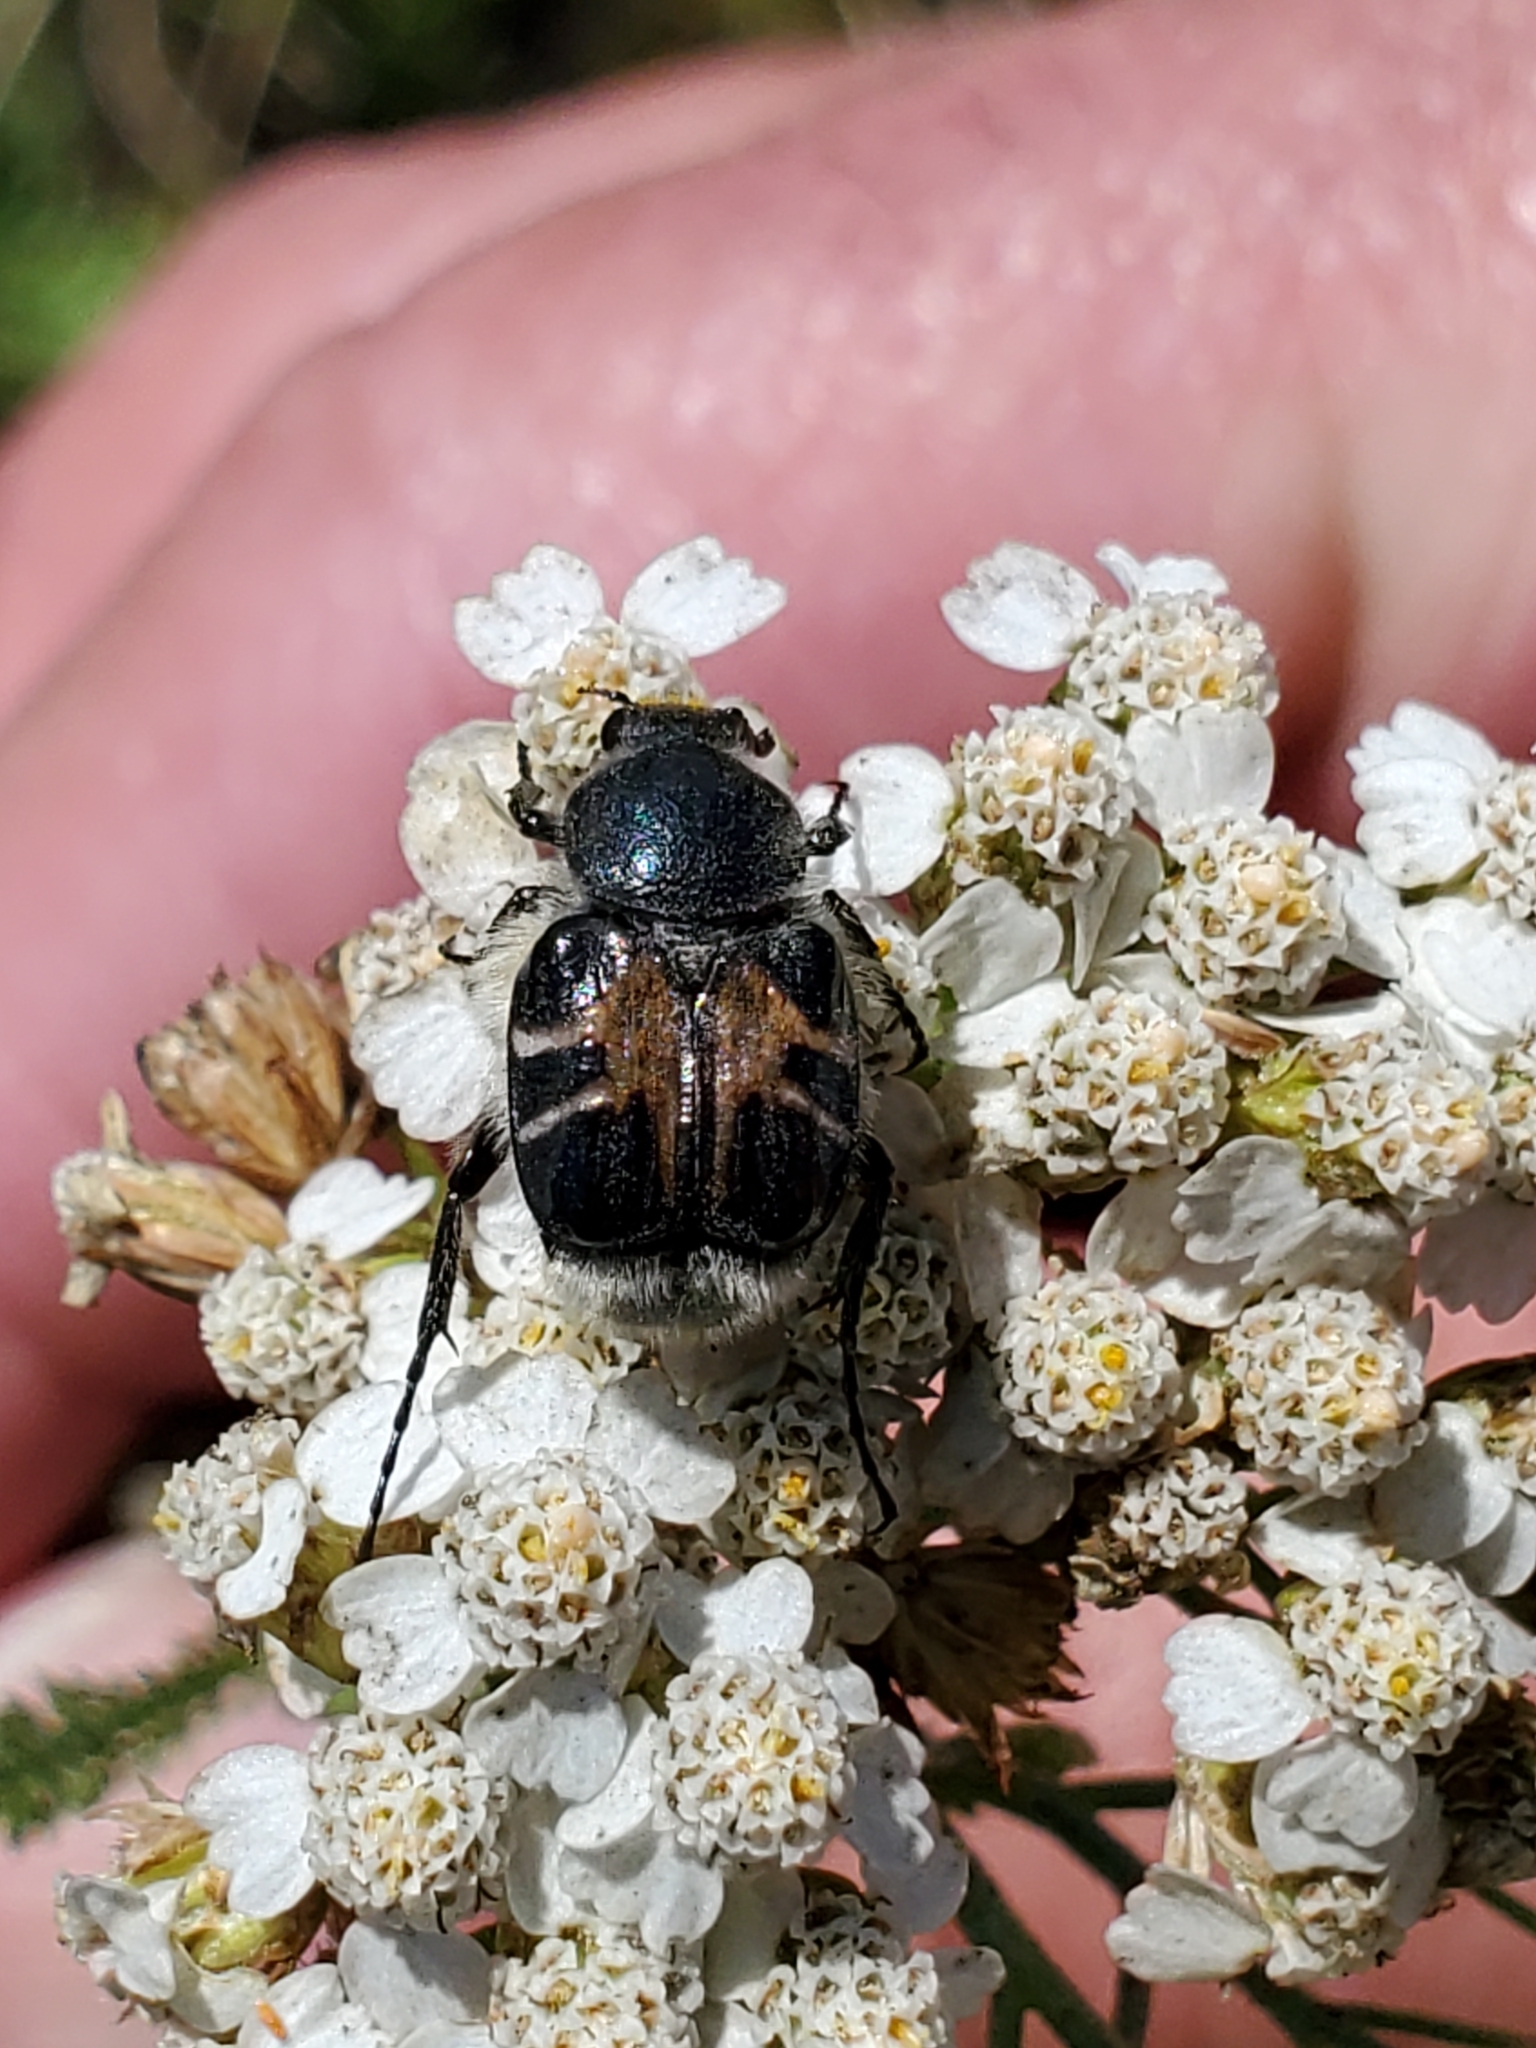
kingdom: Animalia
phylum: Arthropoda
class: Insecta
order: Coleoptera
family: Scarabaeidae
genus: Trichiotinus
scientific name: Trichiotinus assimilis
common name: Bee-mimic beetle
